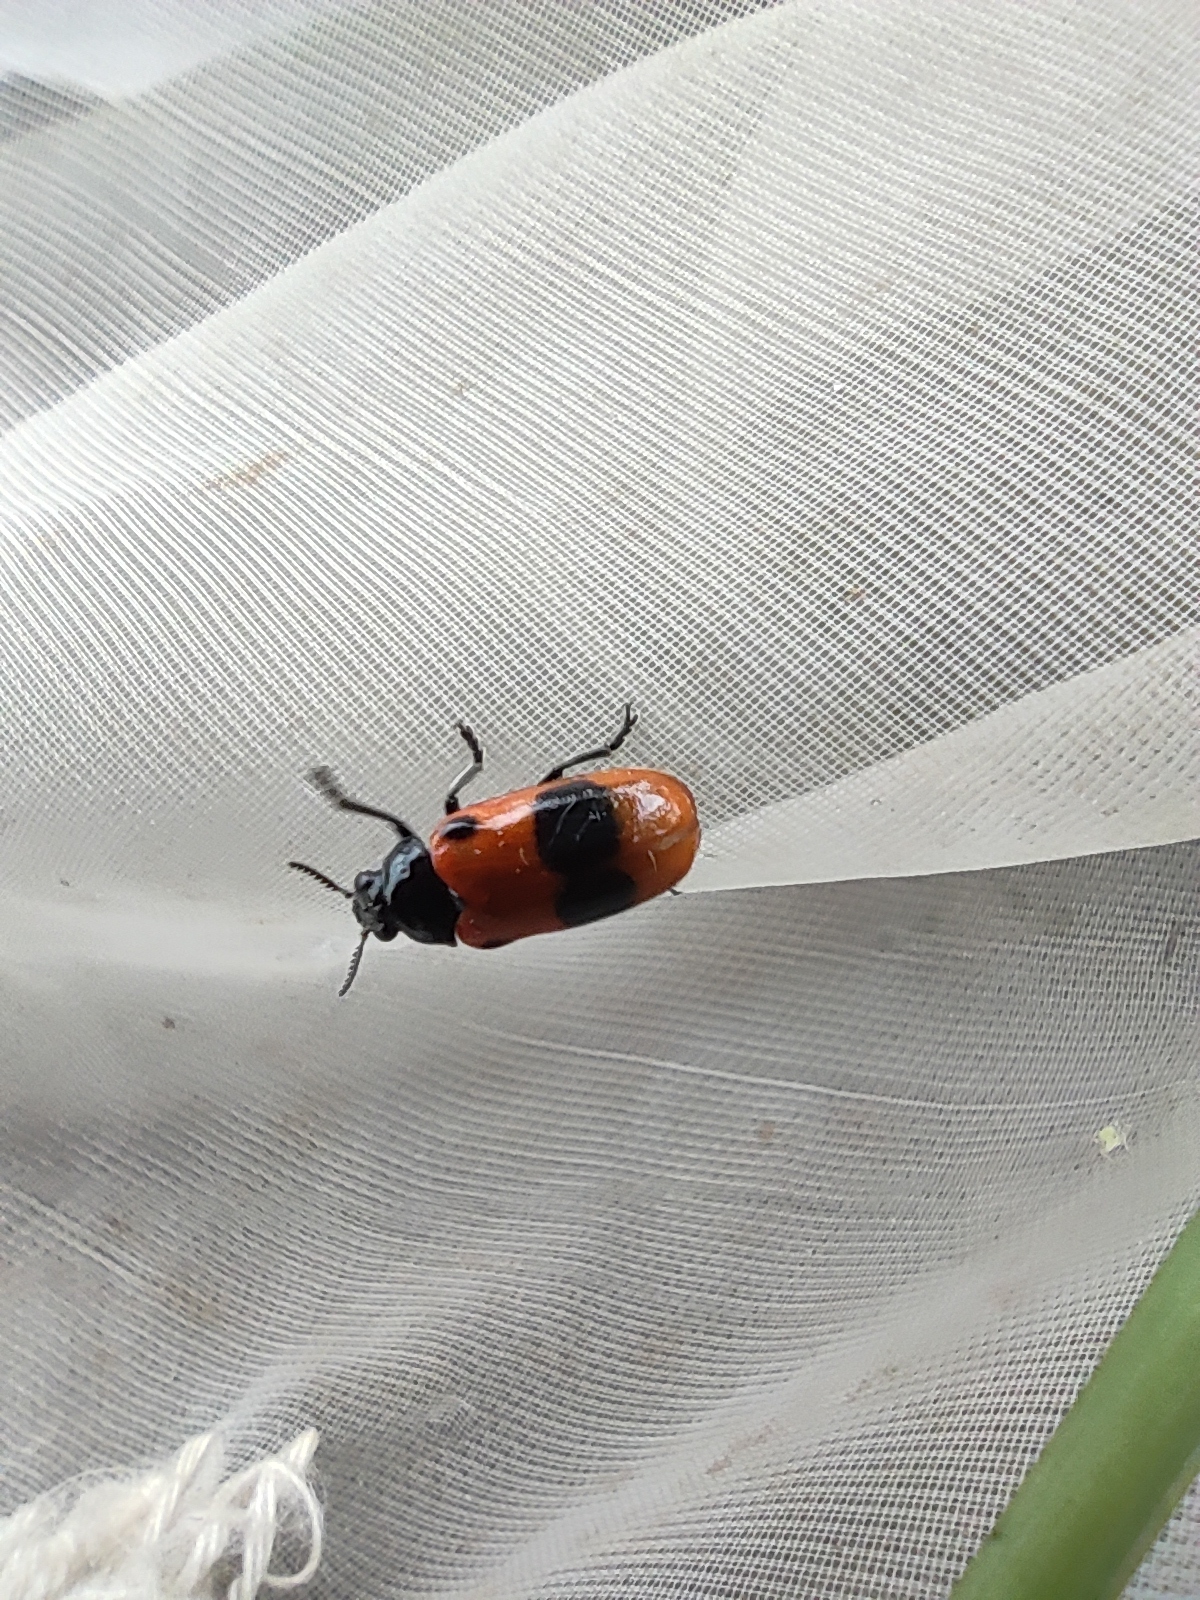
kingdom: Animalia
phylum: Arthropoda
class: Insecta
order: Coleoptera
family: Chrysomelidae
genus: Clytra
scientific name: Clytra laeviuscula
